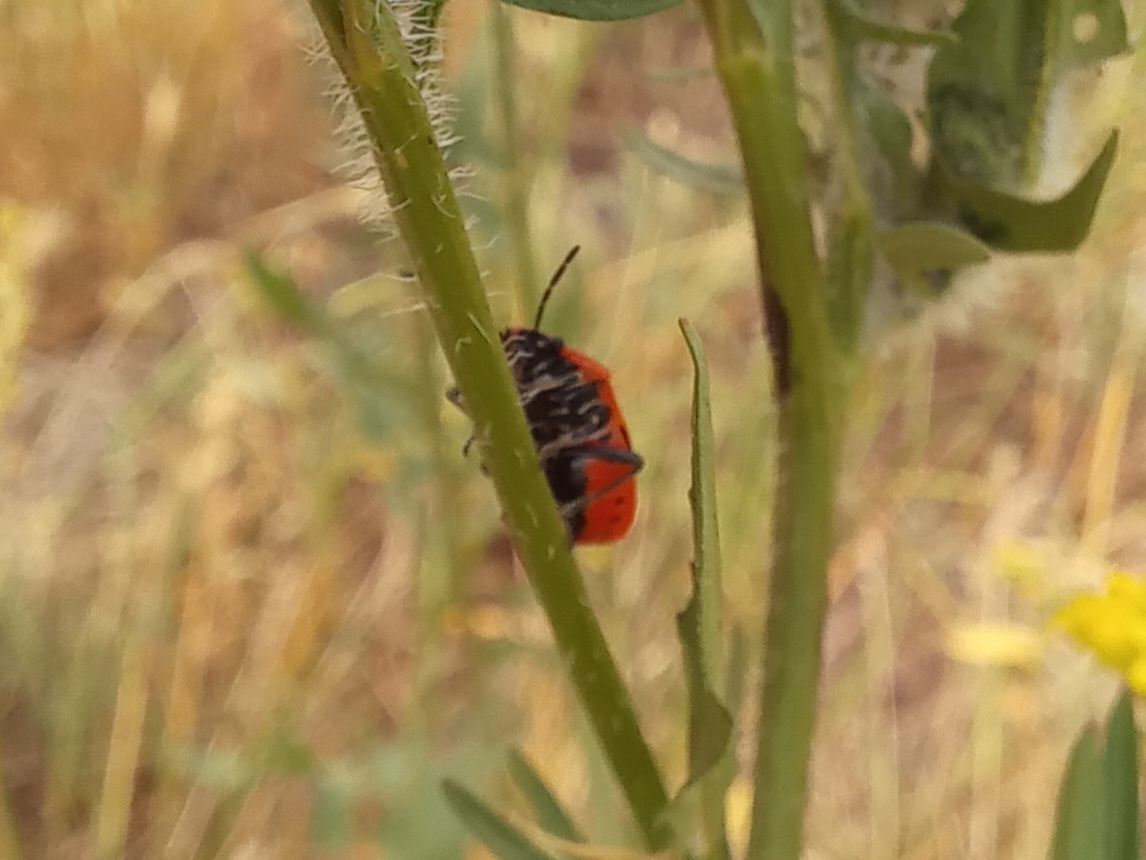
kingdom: Animalia
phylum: Arthropoda
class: Insecta
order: Hemiptera
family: Pentatomidae
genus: Eurydema
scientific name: Eurydema ornata
